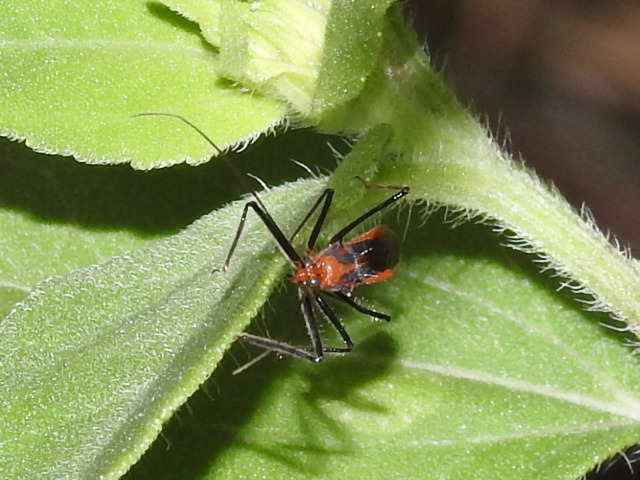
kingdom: Animalia
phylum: Arthropoda
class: Insecta
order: Hemiptera
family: Reduviidae
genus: Repipta
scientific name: Repipta taurus
